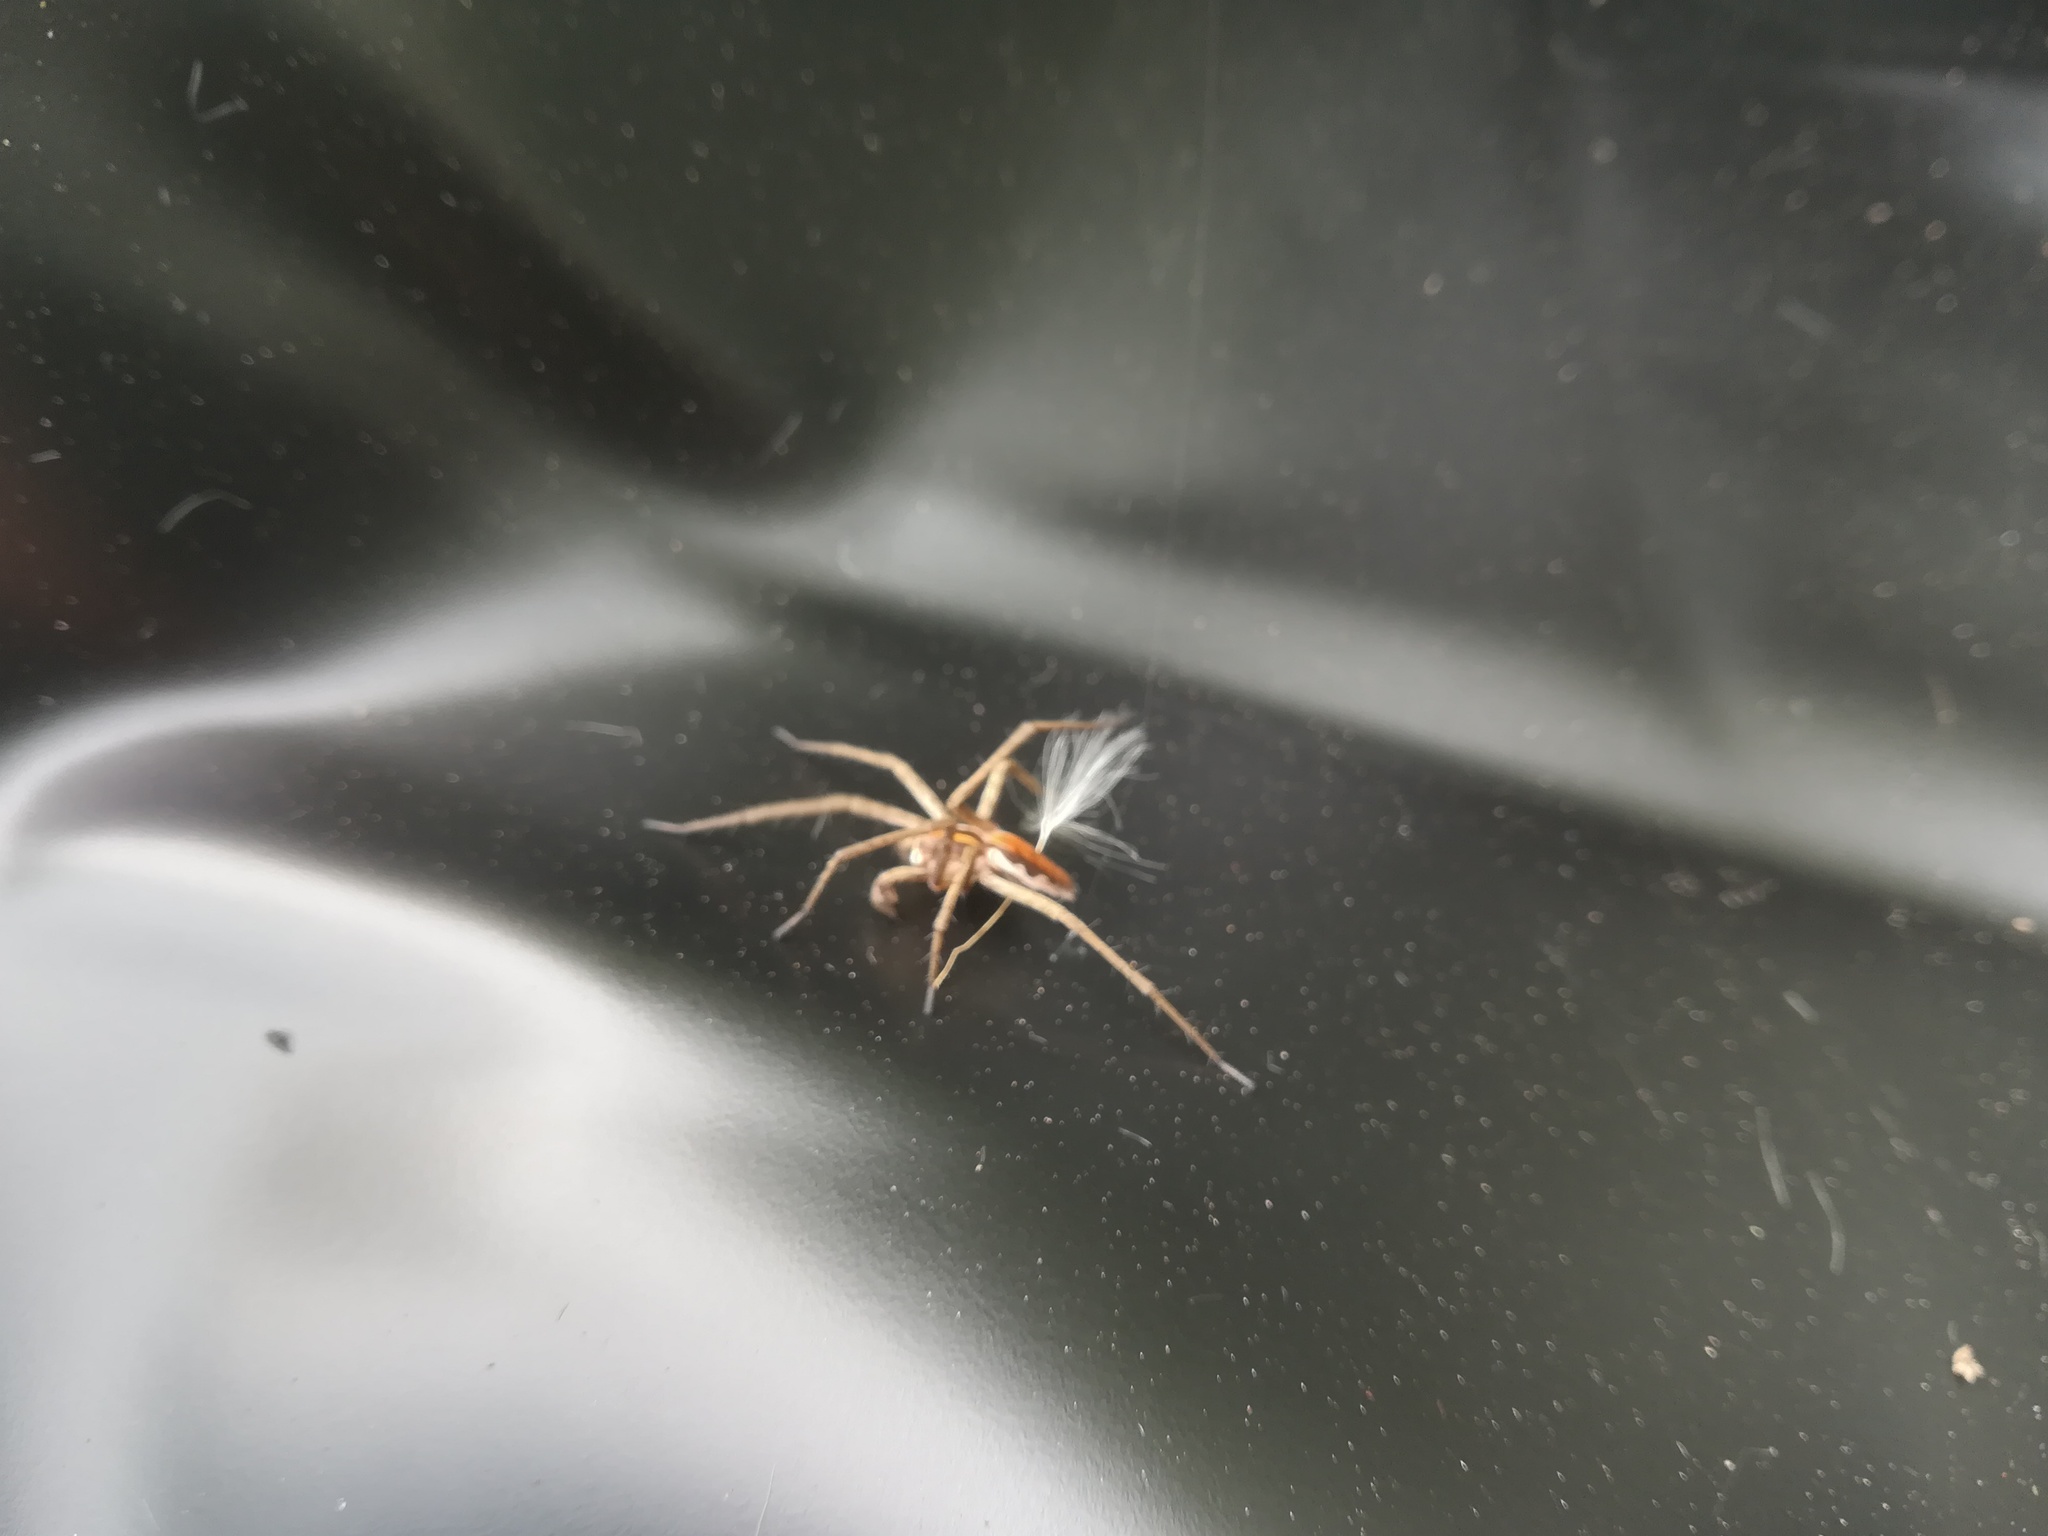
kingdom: Animalia
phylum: Arthropoda
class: Arachnida
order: Araneae
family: Pisauridae
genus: Pisaura
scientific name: Pisaura mirabilis
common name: Tent spider
